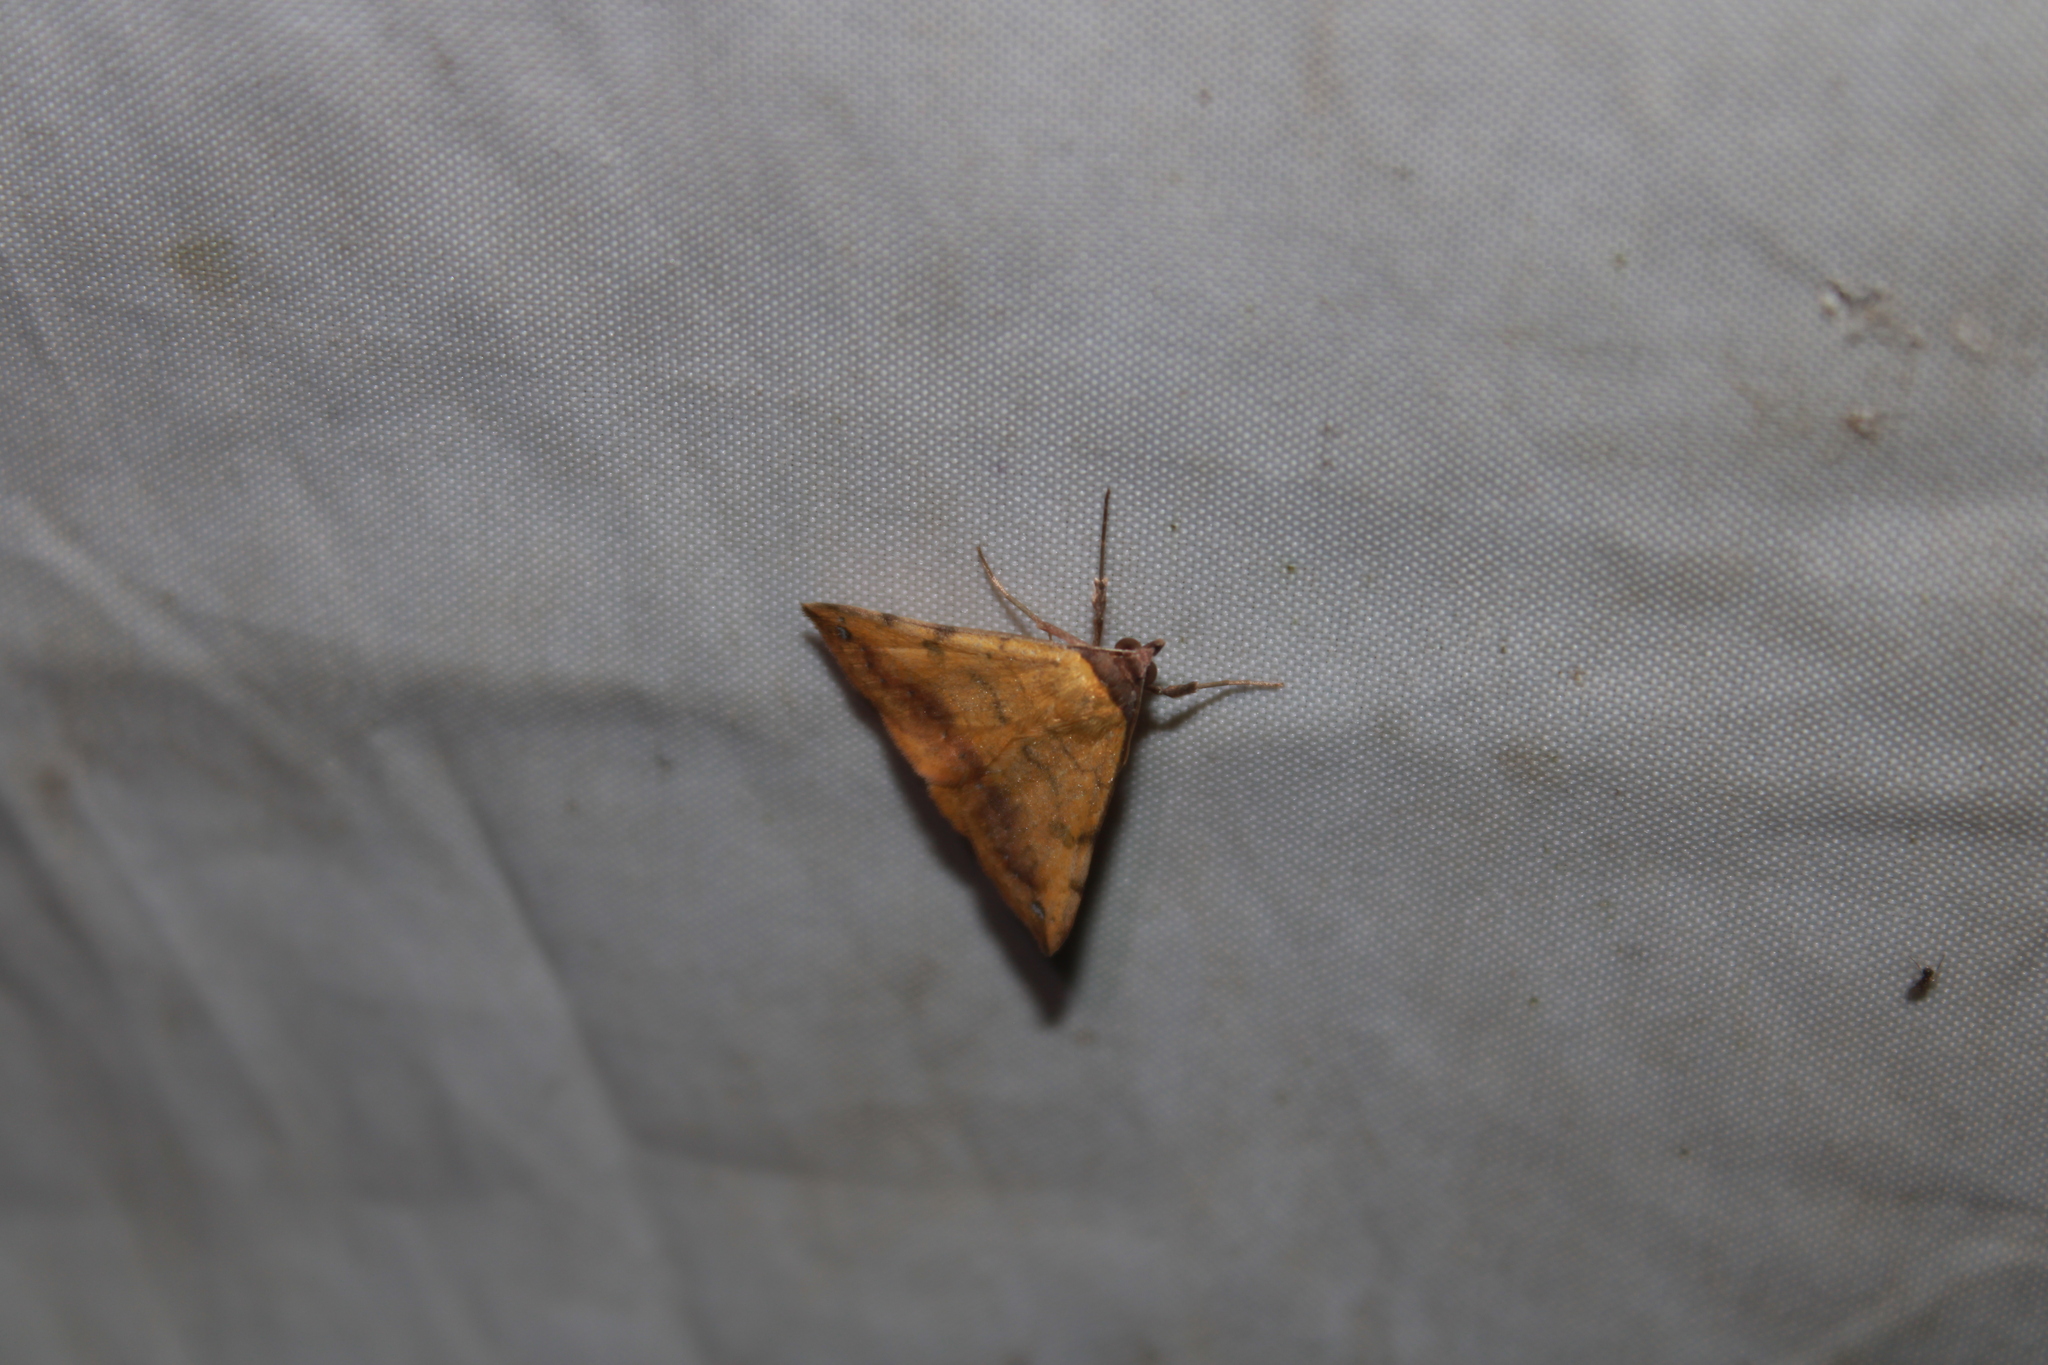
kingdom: Animalia
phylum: Arthropoda
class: Insecta
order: Lepidoptera
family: Erebidae
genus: Hemeroplanis
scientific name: Hemeroplanis scopulepes
